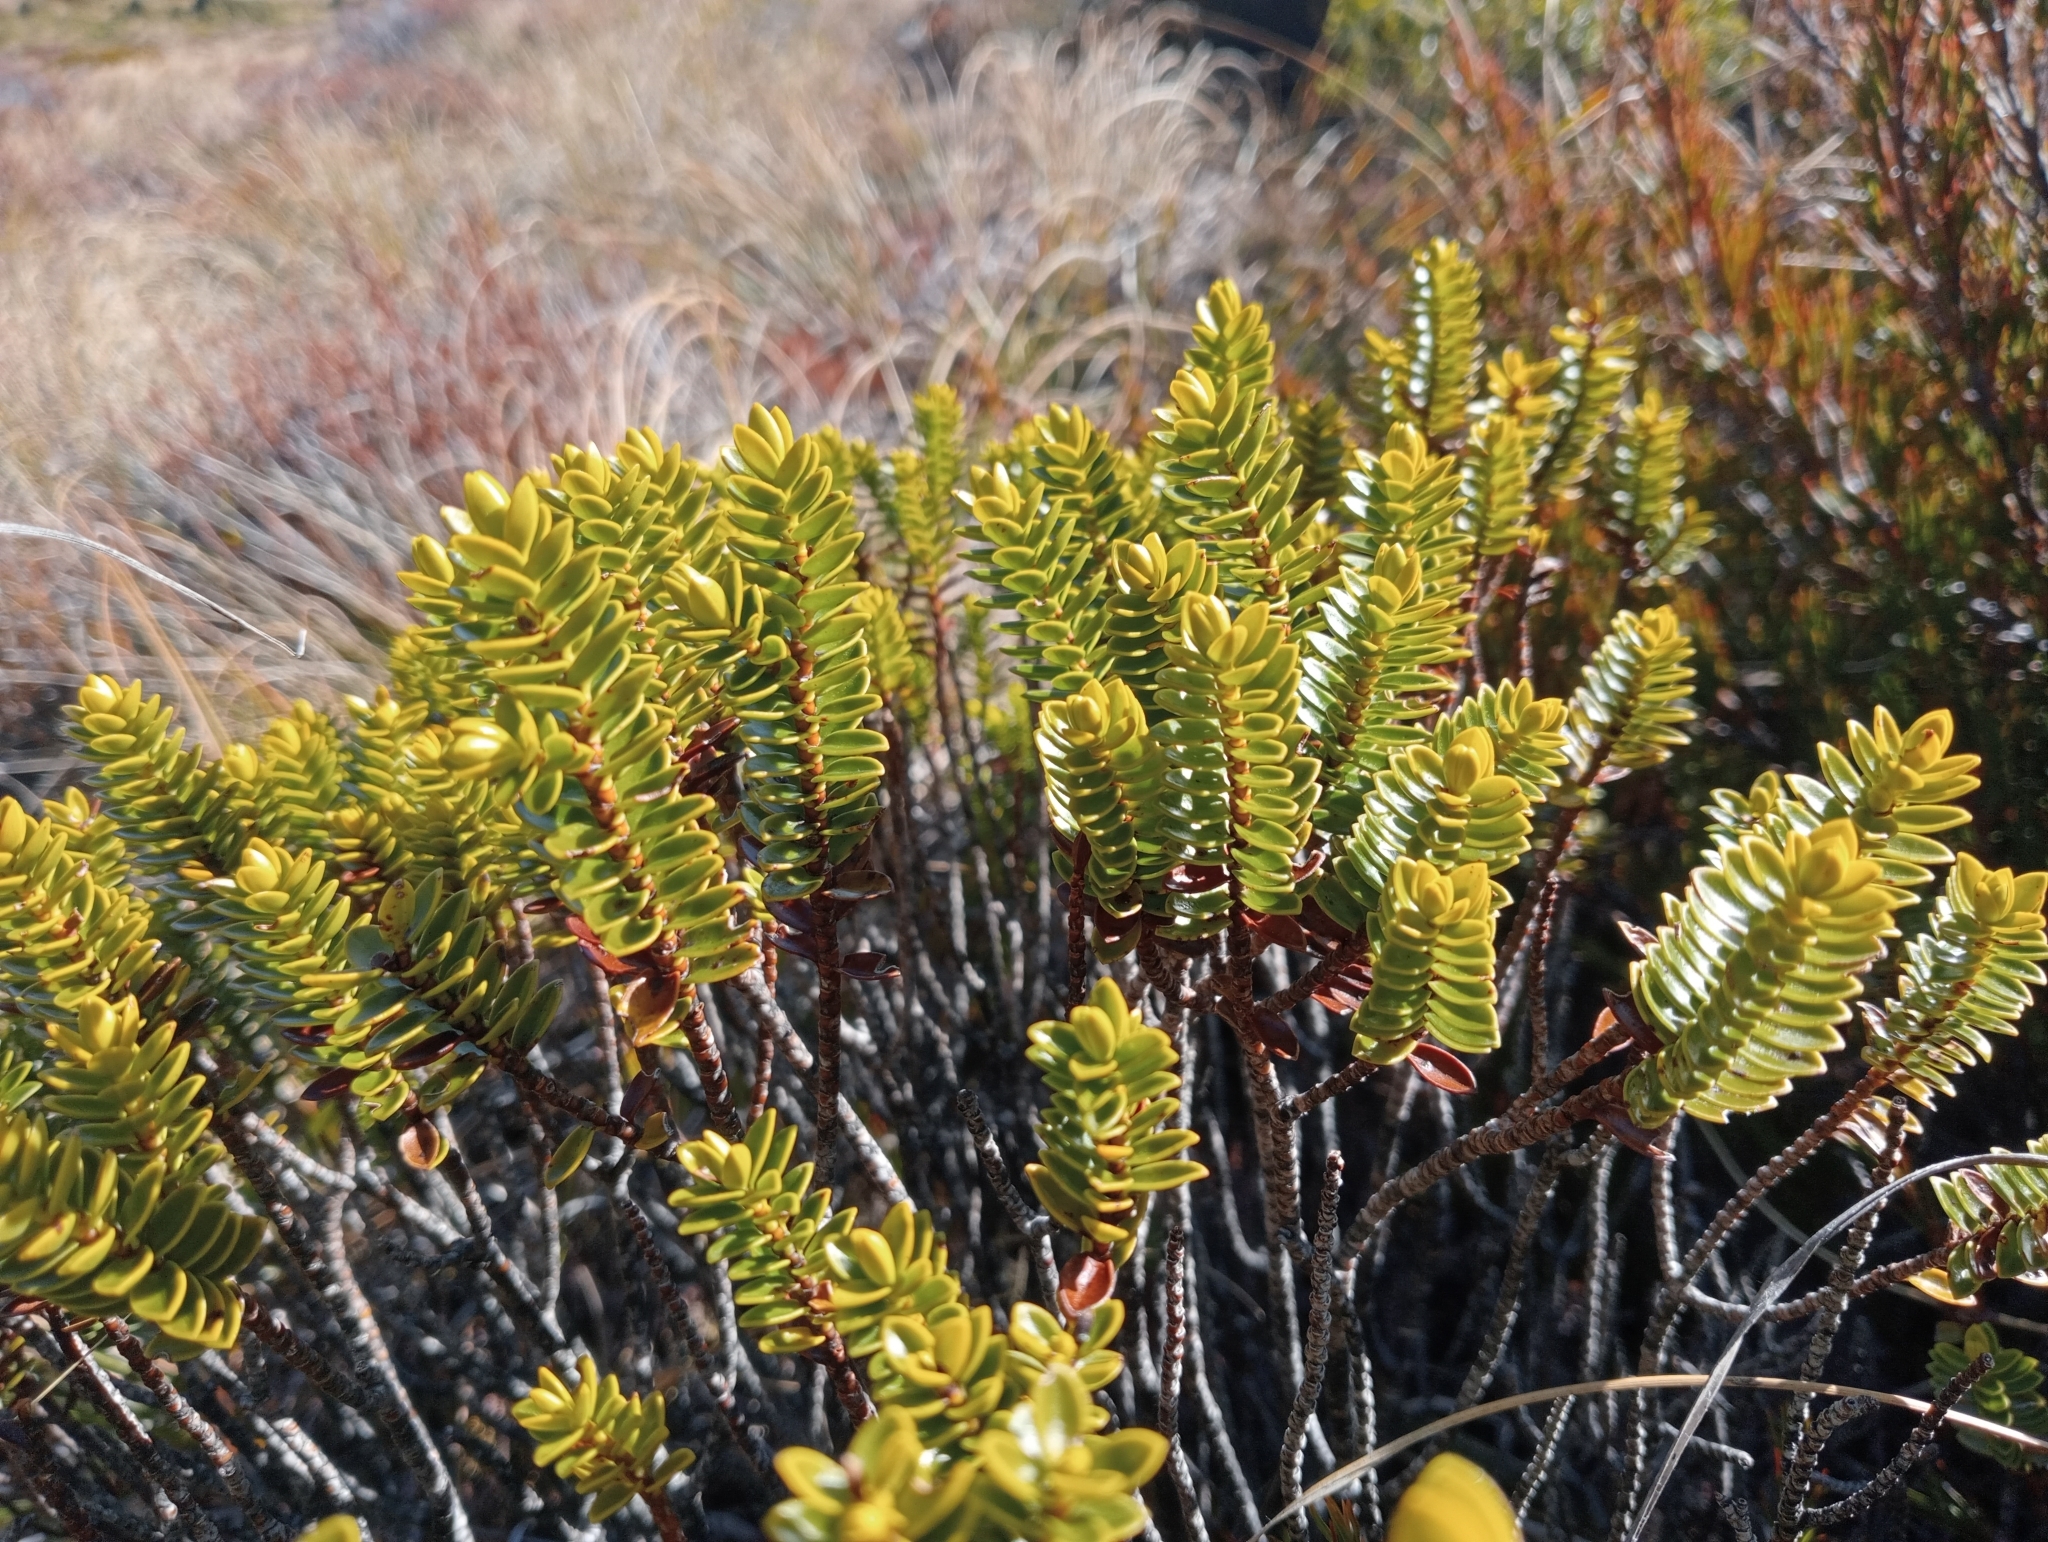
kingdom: Plantae
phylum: Tracheophyta
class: Magnoliopsida
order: Lamiales
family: Plantaginaceae
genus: Veronica
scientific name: Veronica odora
